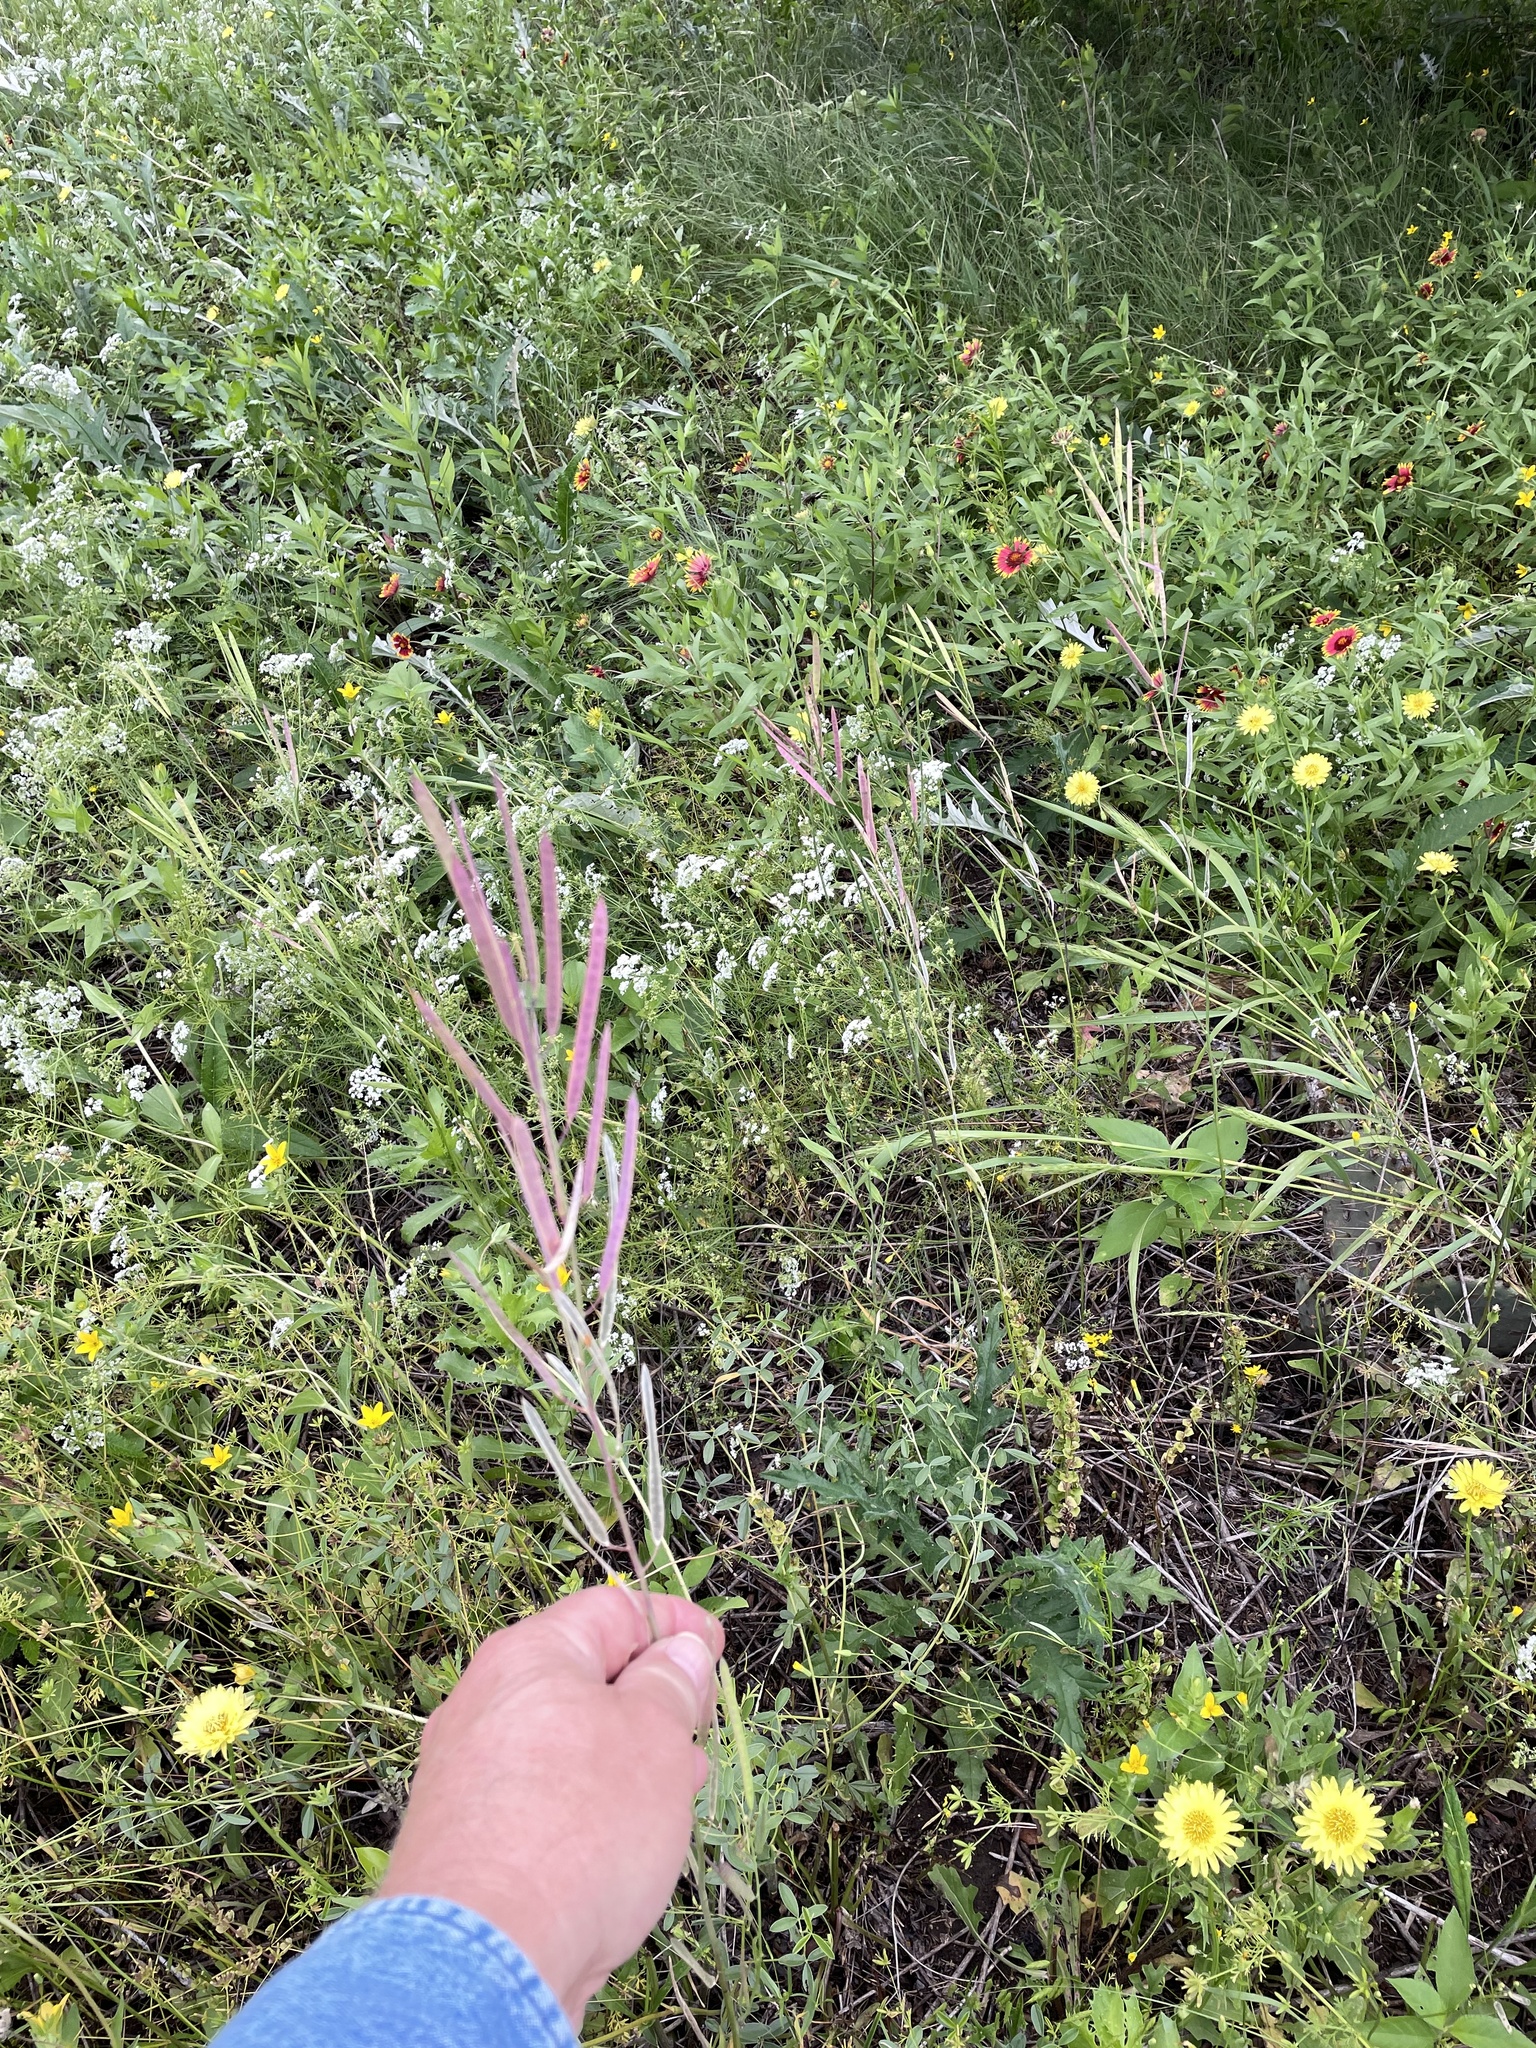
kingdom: Plantae
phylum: Tracheophyta
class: Magnoliopsida
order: Brassicales
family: Brassicaceae
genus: Streptanthus
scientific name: Streptanthus petiolaris
